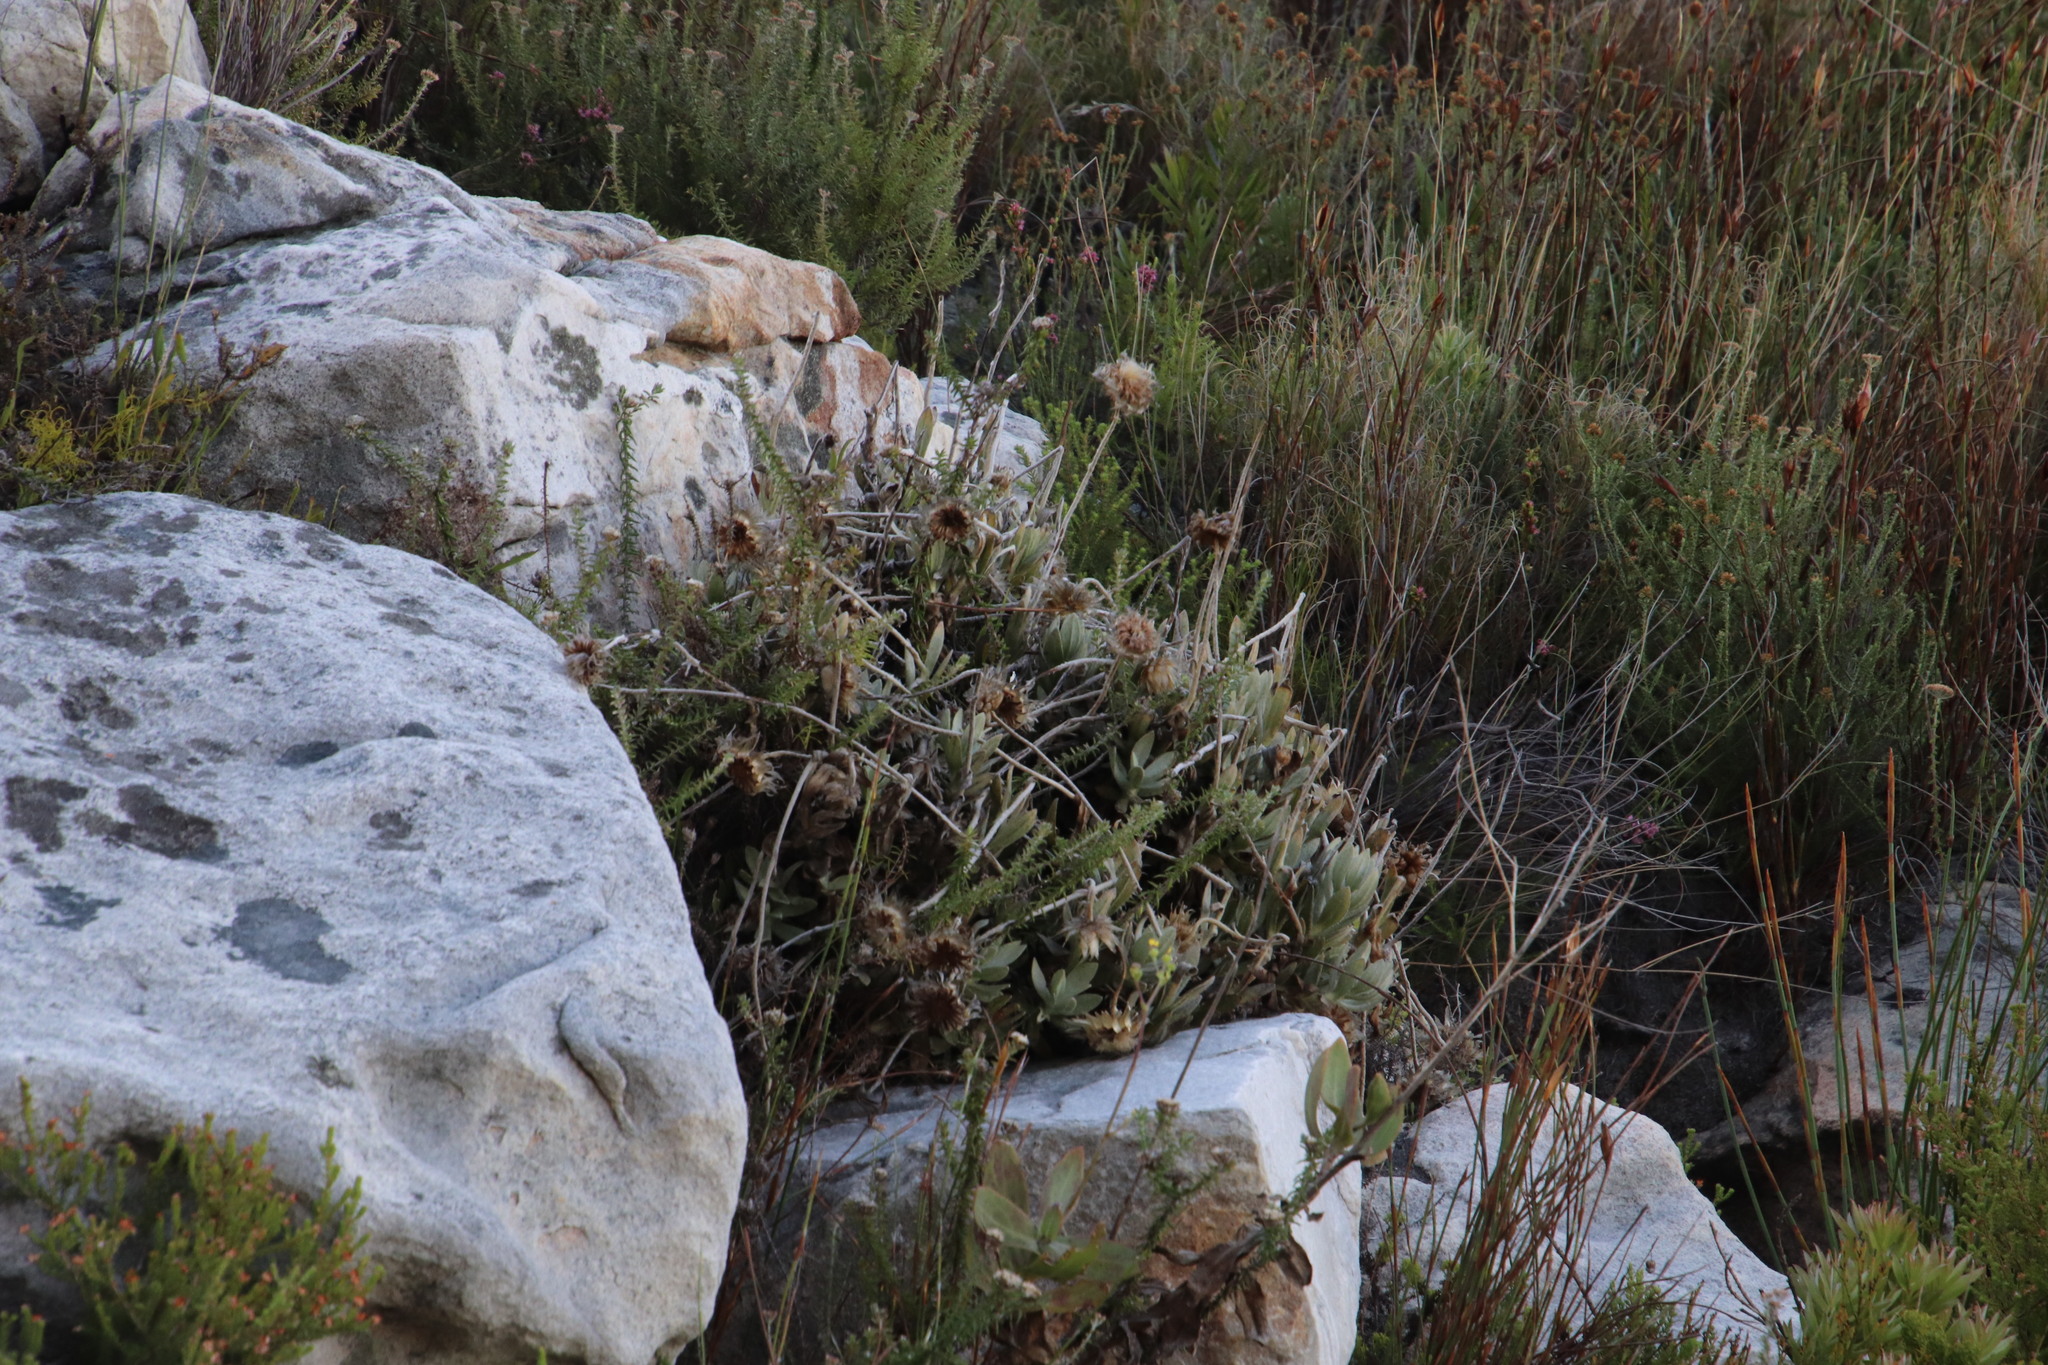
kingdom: Plantae
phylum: Tracheophyta
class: Magnoliopsida
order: Asterales
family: Asteraceae
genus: Syncarpha
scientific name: Syncarpha speciosissima
